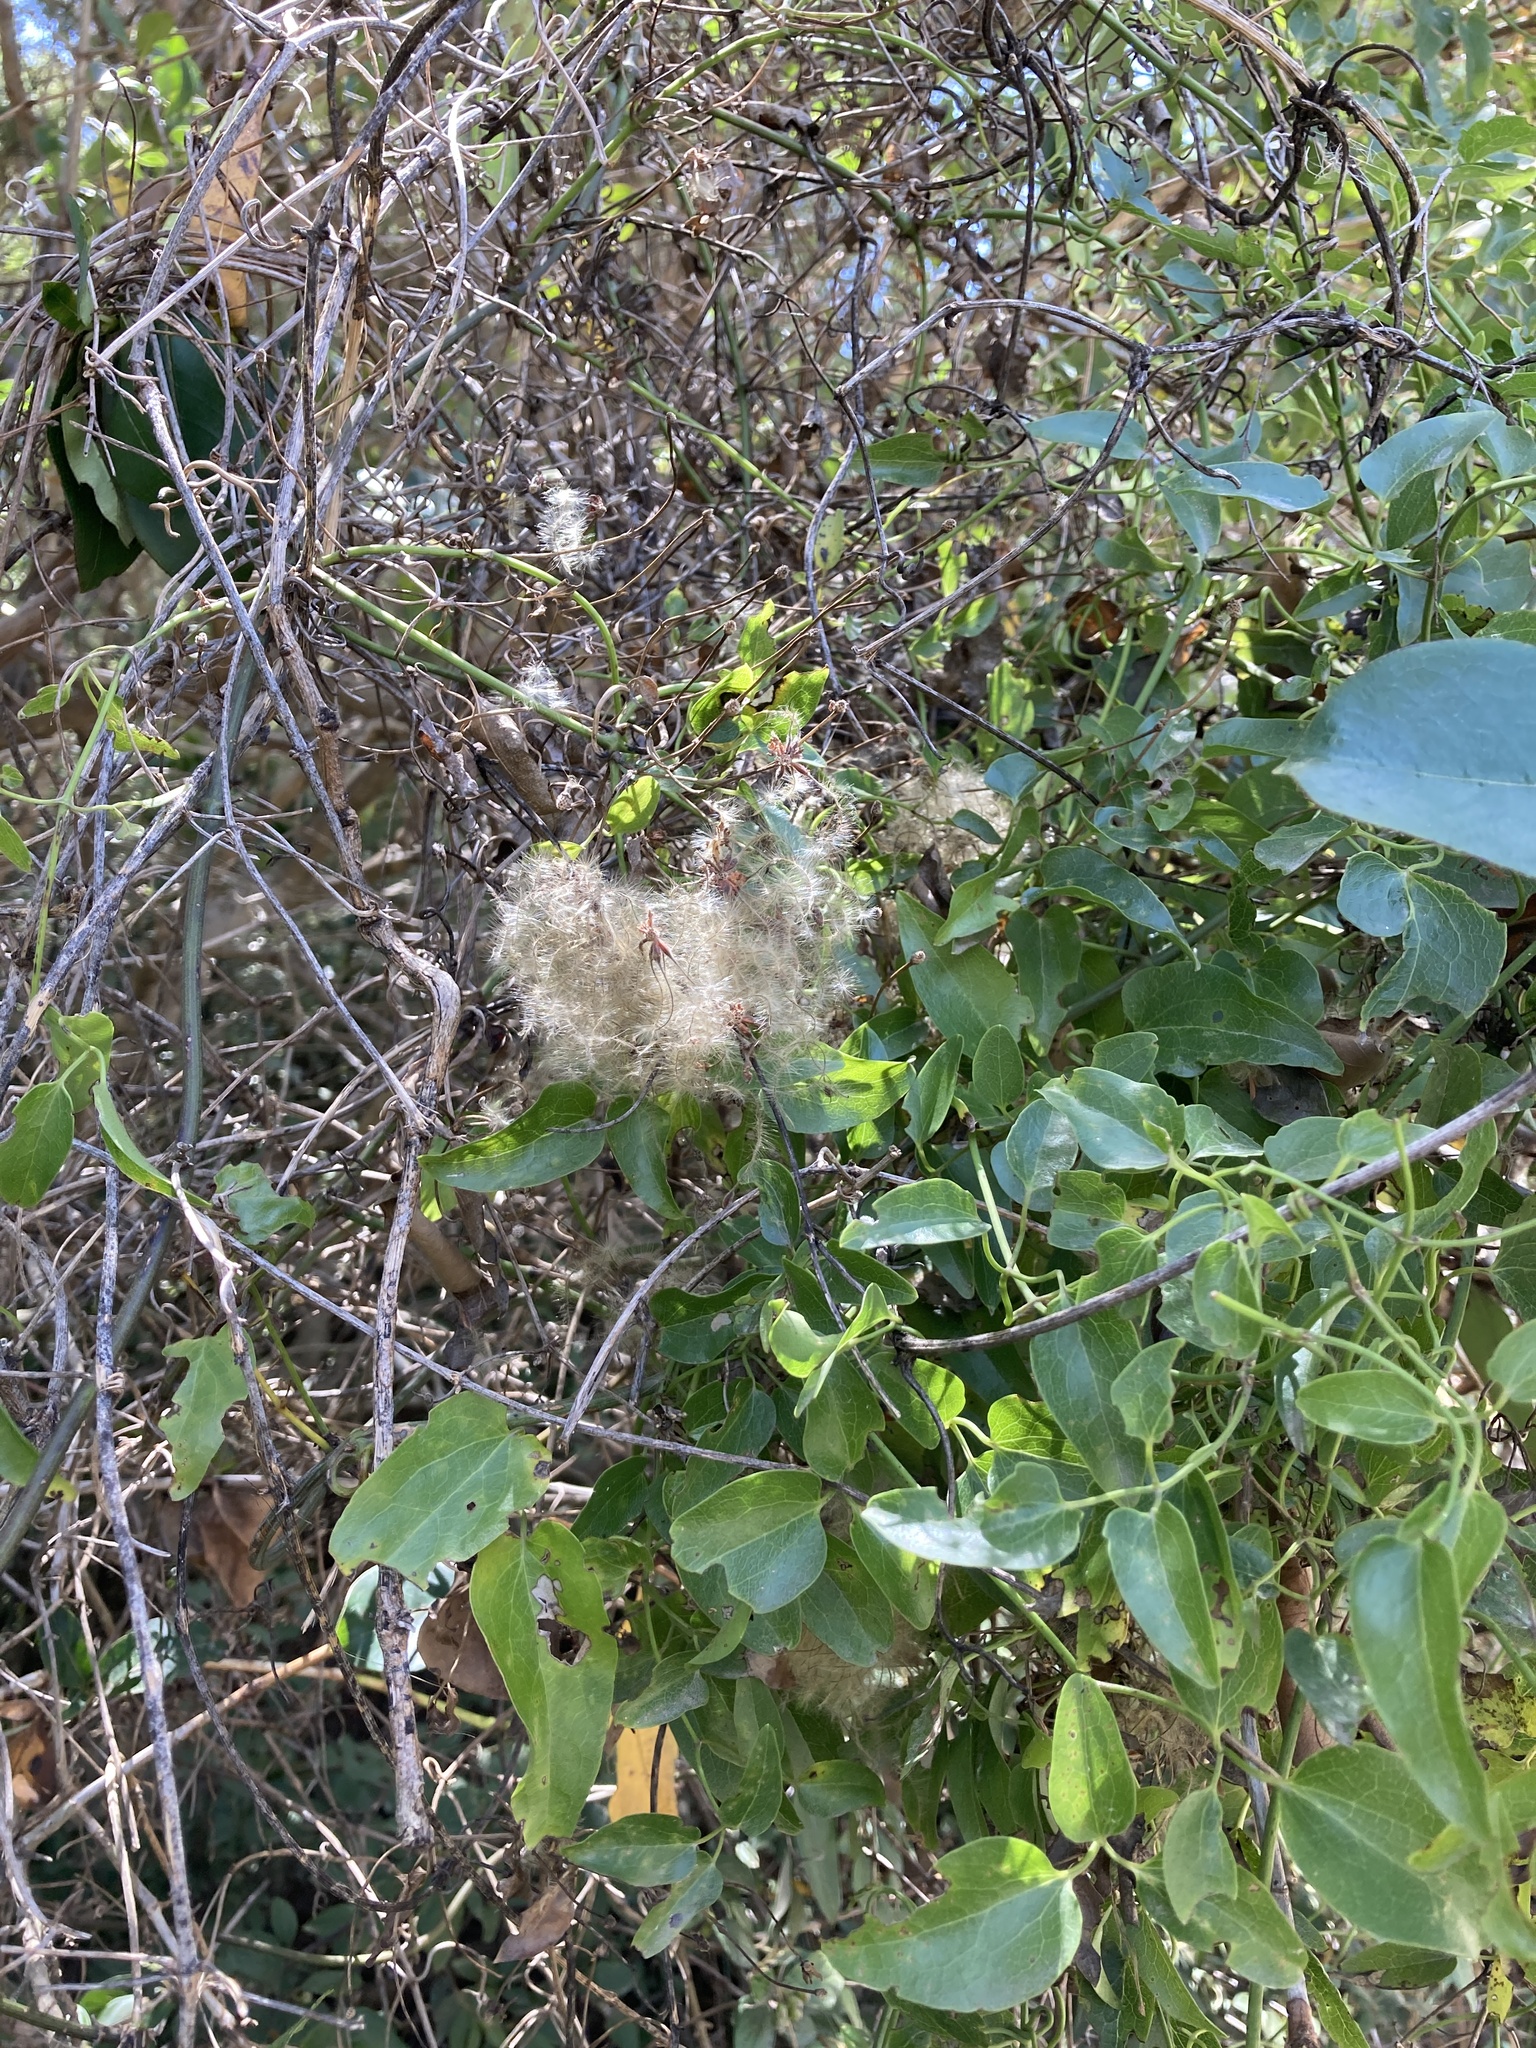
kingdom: Plantae
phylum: Tracheophyta
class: Magnoliopsida
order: Ranunculales
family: Ranunculaceae
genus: Clematis
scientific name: Clematis forsteri
